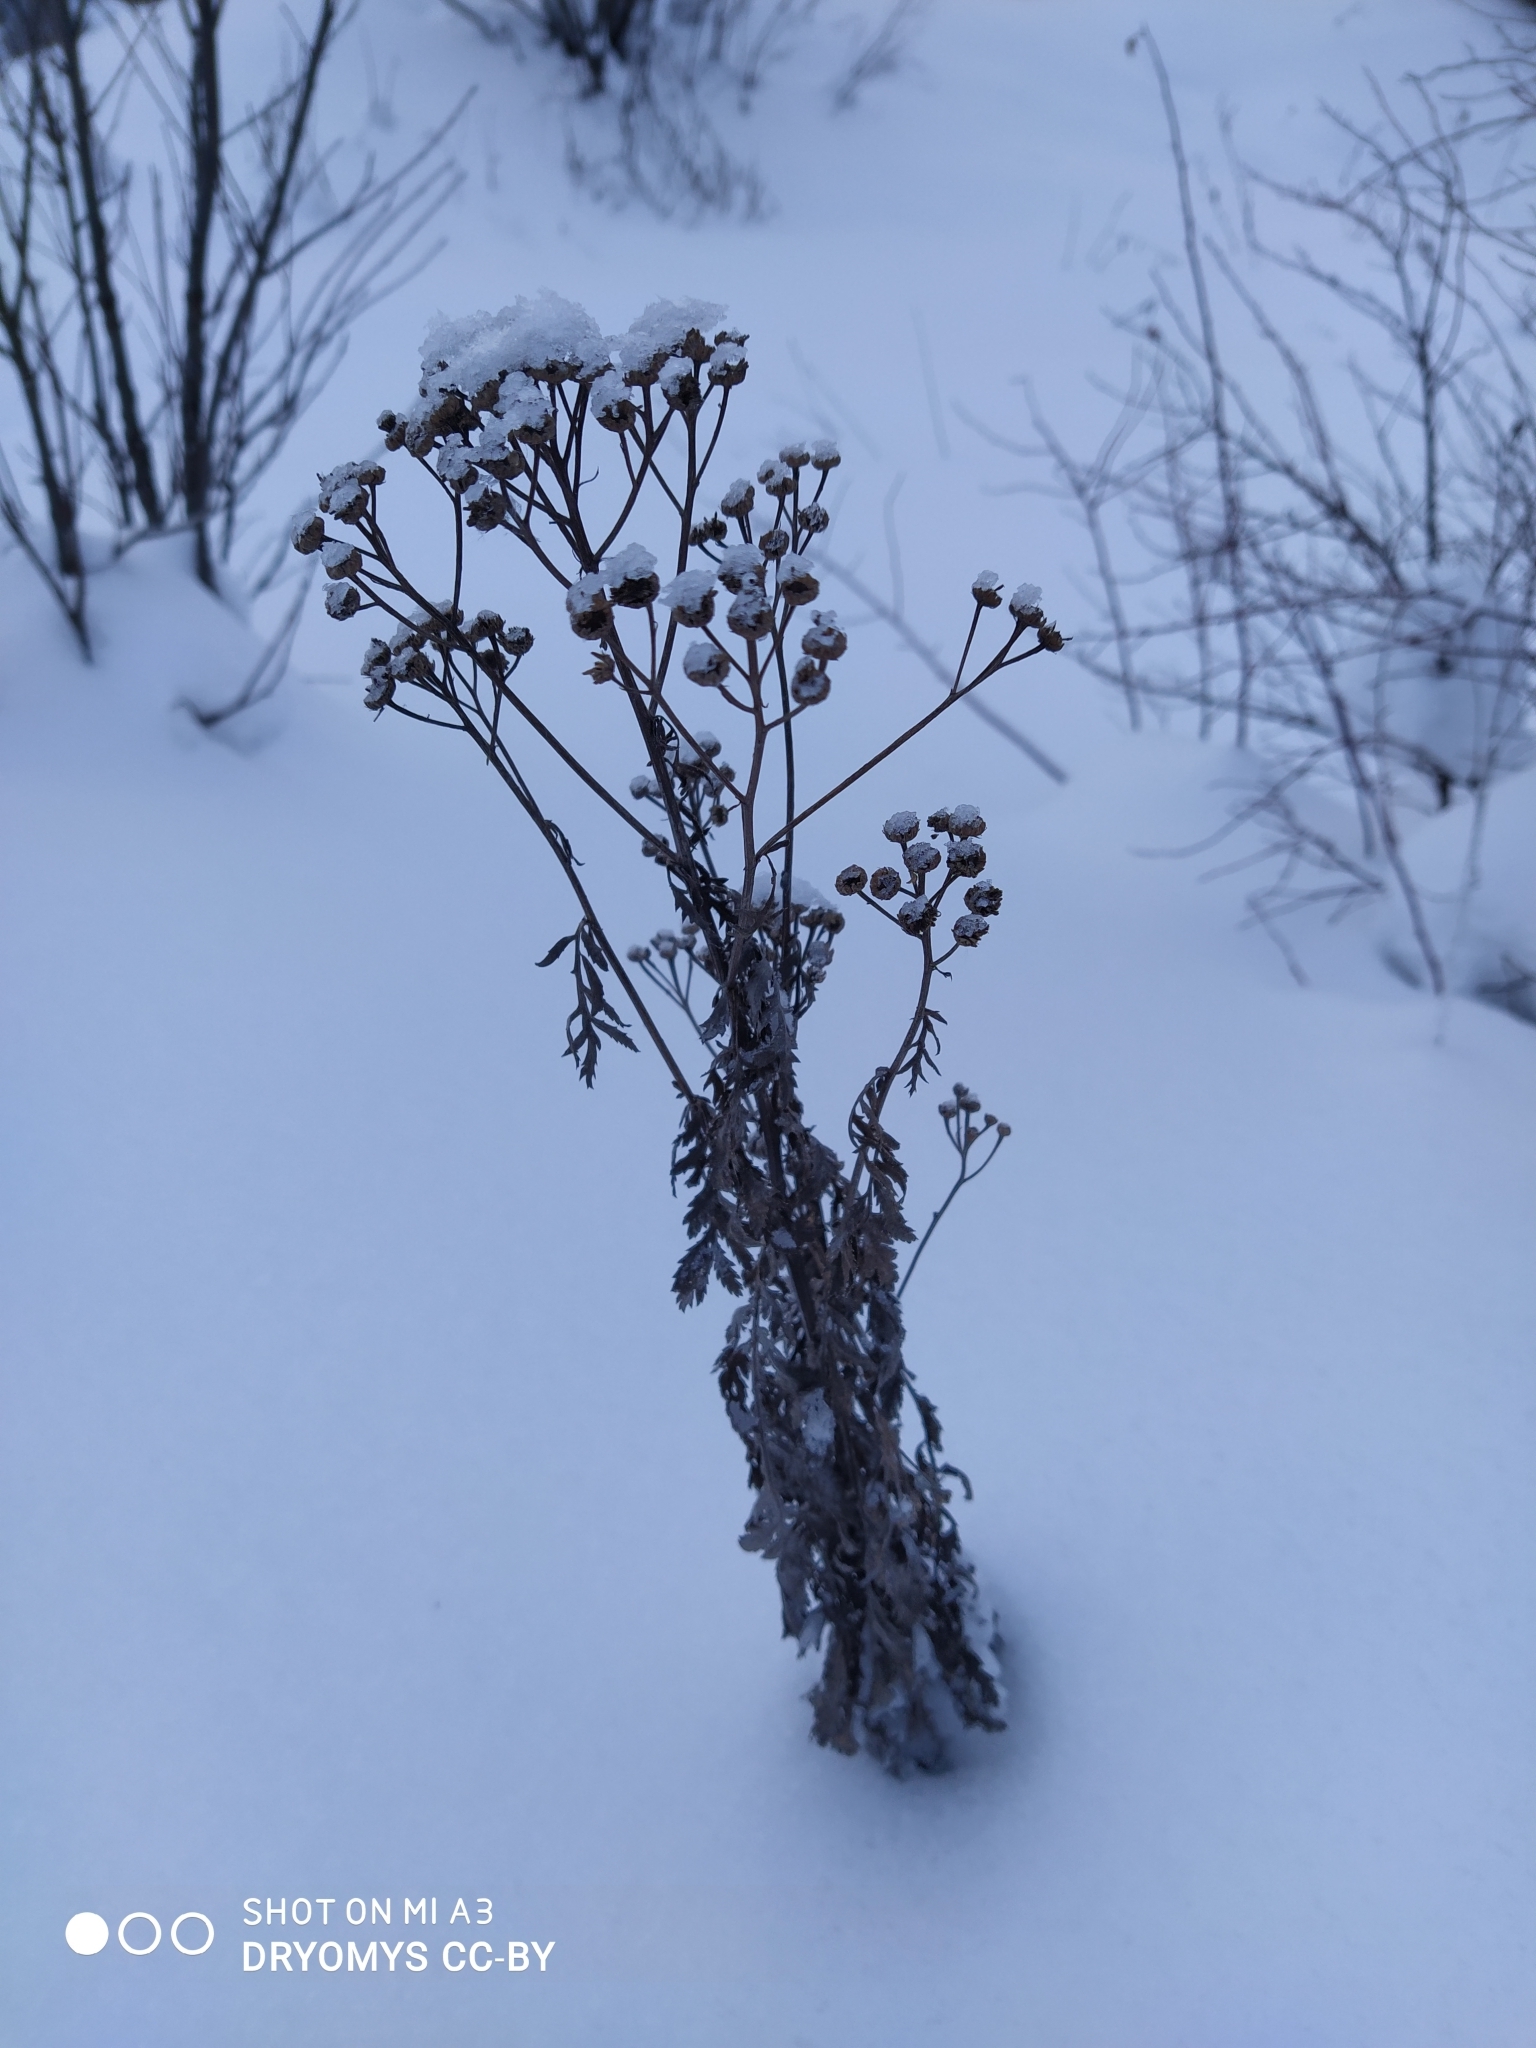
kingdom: Plantae
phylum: Tracheophyta
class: Magnoliopsida
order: Asterales
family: Asteraceae
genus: Tanacetum
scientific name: Tanacetum vulgare
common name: Common tansy
